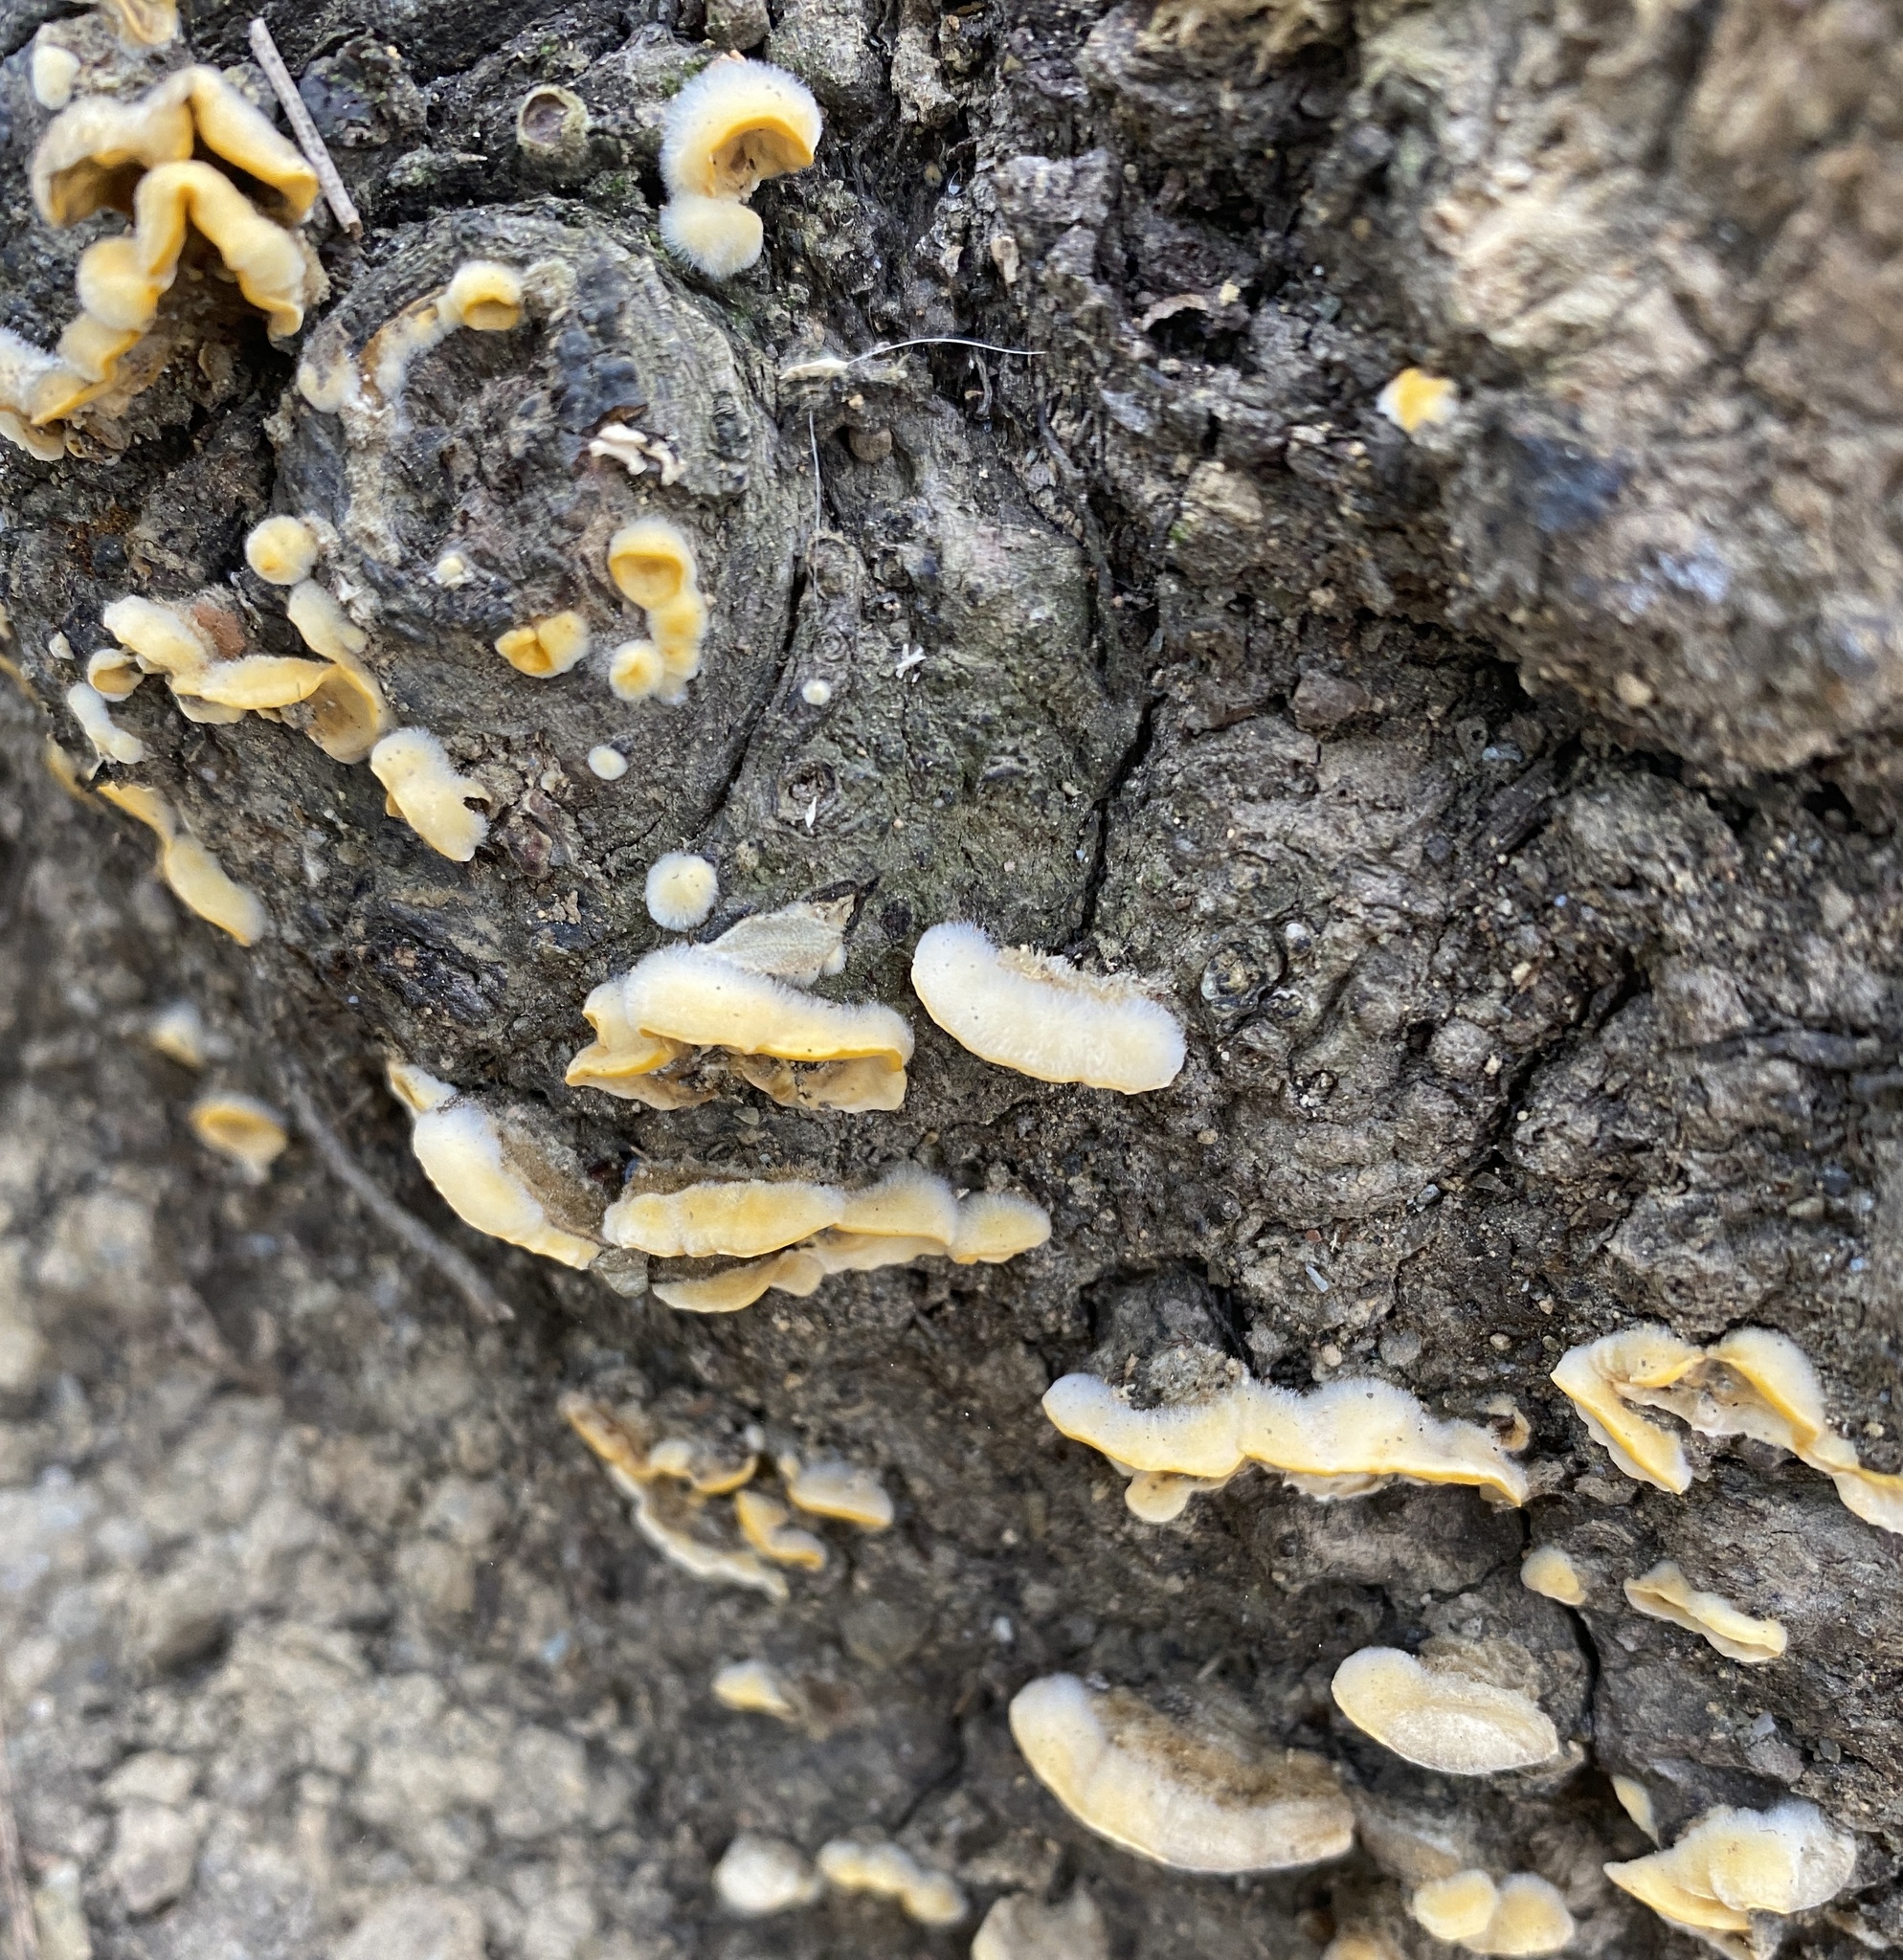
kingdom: Fungi
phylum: Basidiomycota
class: Agaricomycetes
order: Russulales
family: Stereaceae
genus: Stereum
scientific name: Stereum hirsutum
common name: Hairy curtain crust
